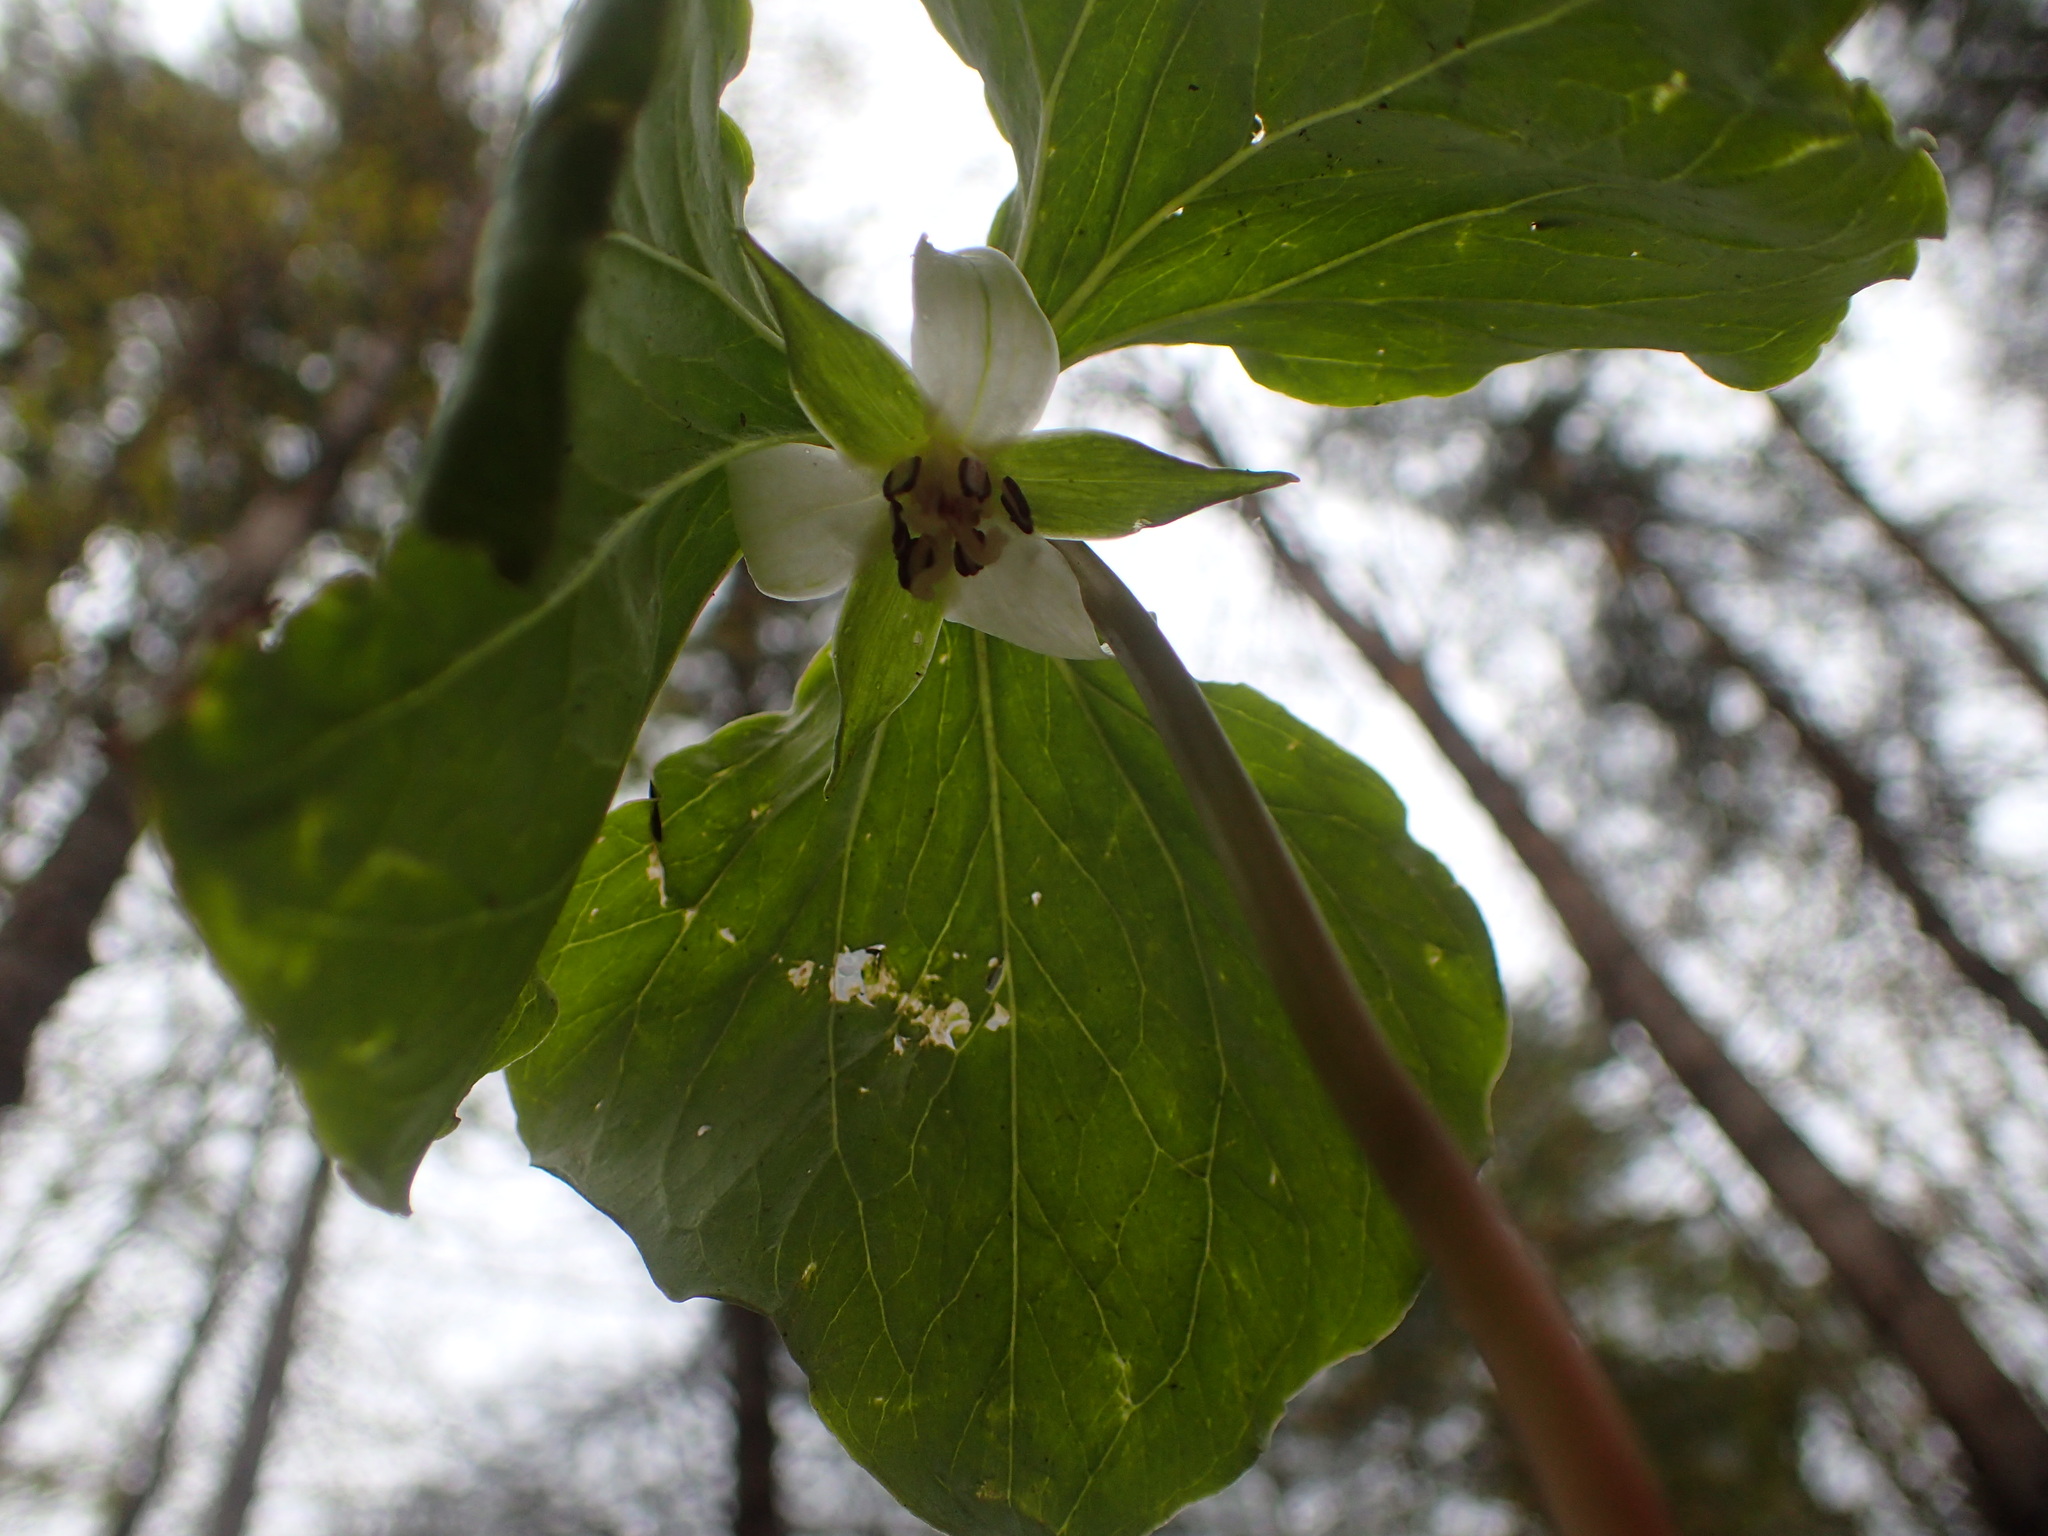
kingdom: Plantae
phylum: Tracheophyta
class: Liliopsida
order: Liliales
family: Melanthiaceae
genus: Trillium
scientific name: Trillium cernuum
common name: Nodding trillium
